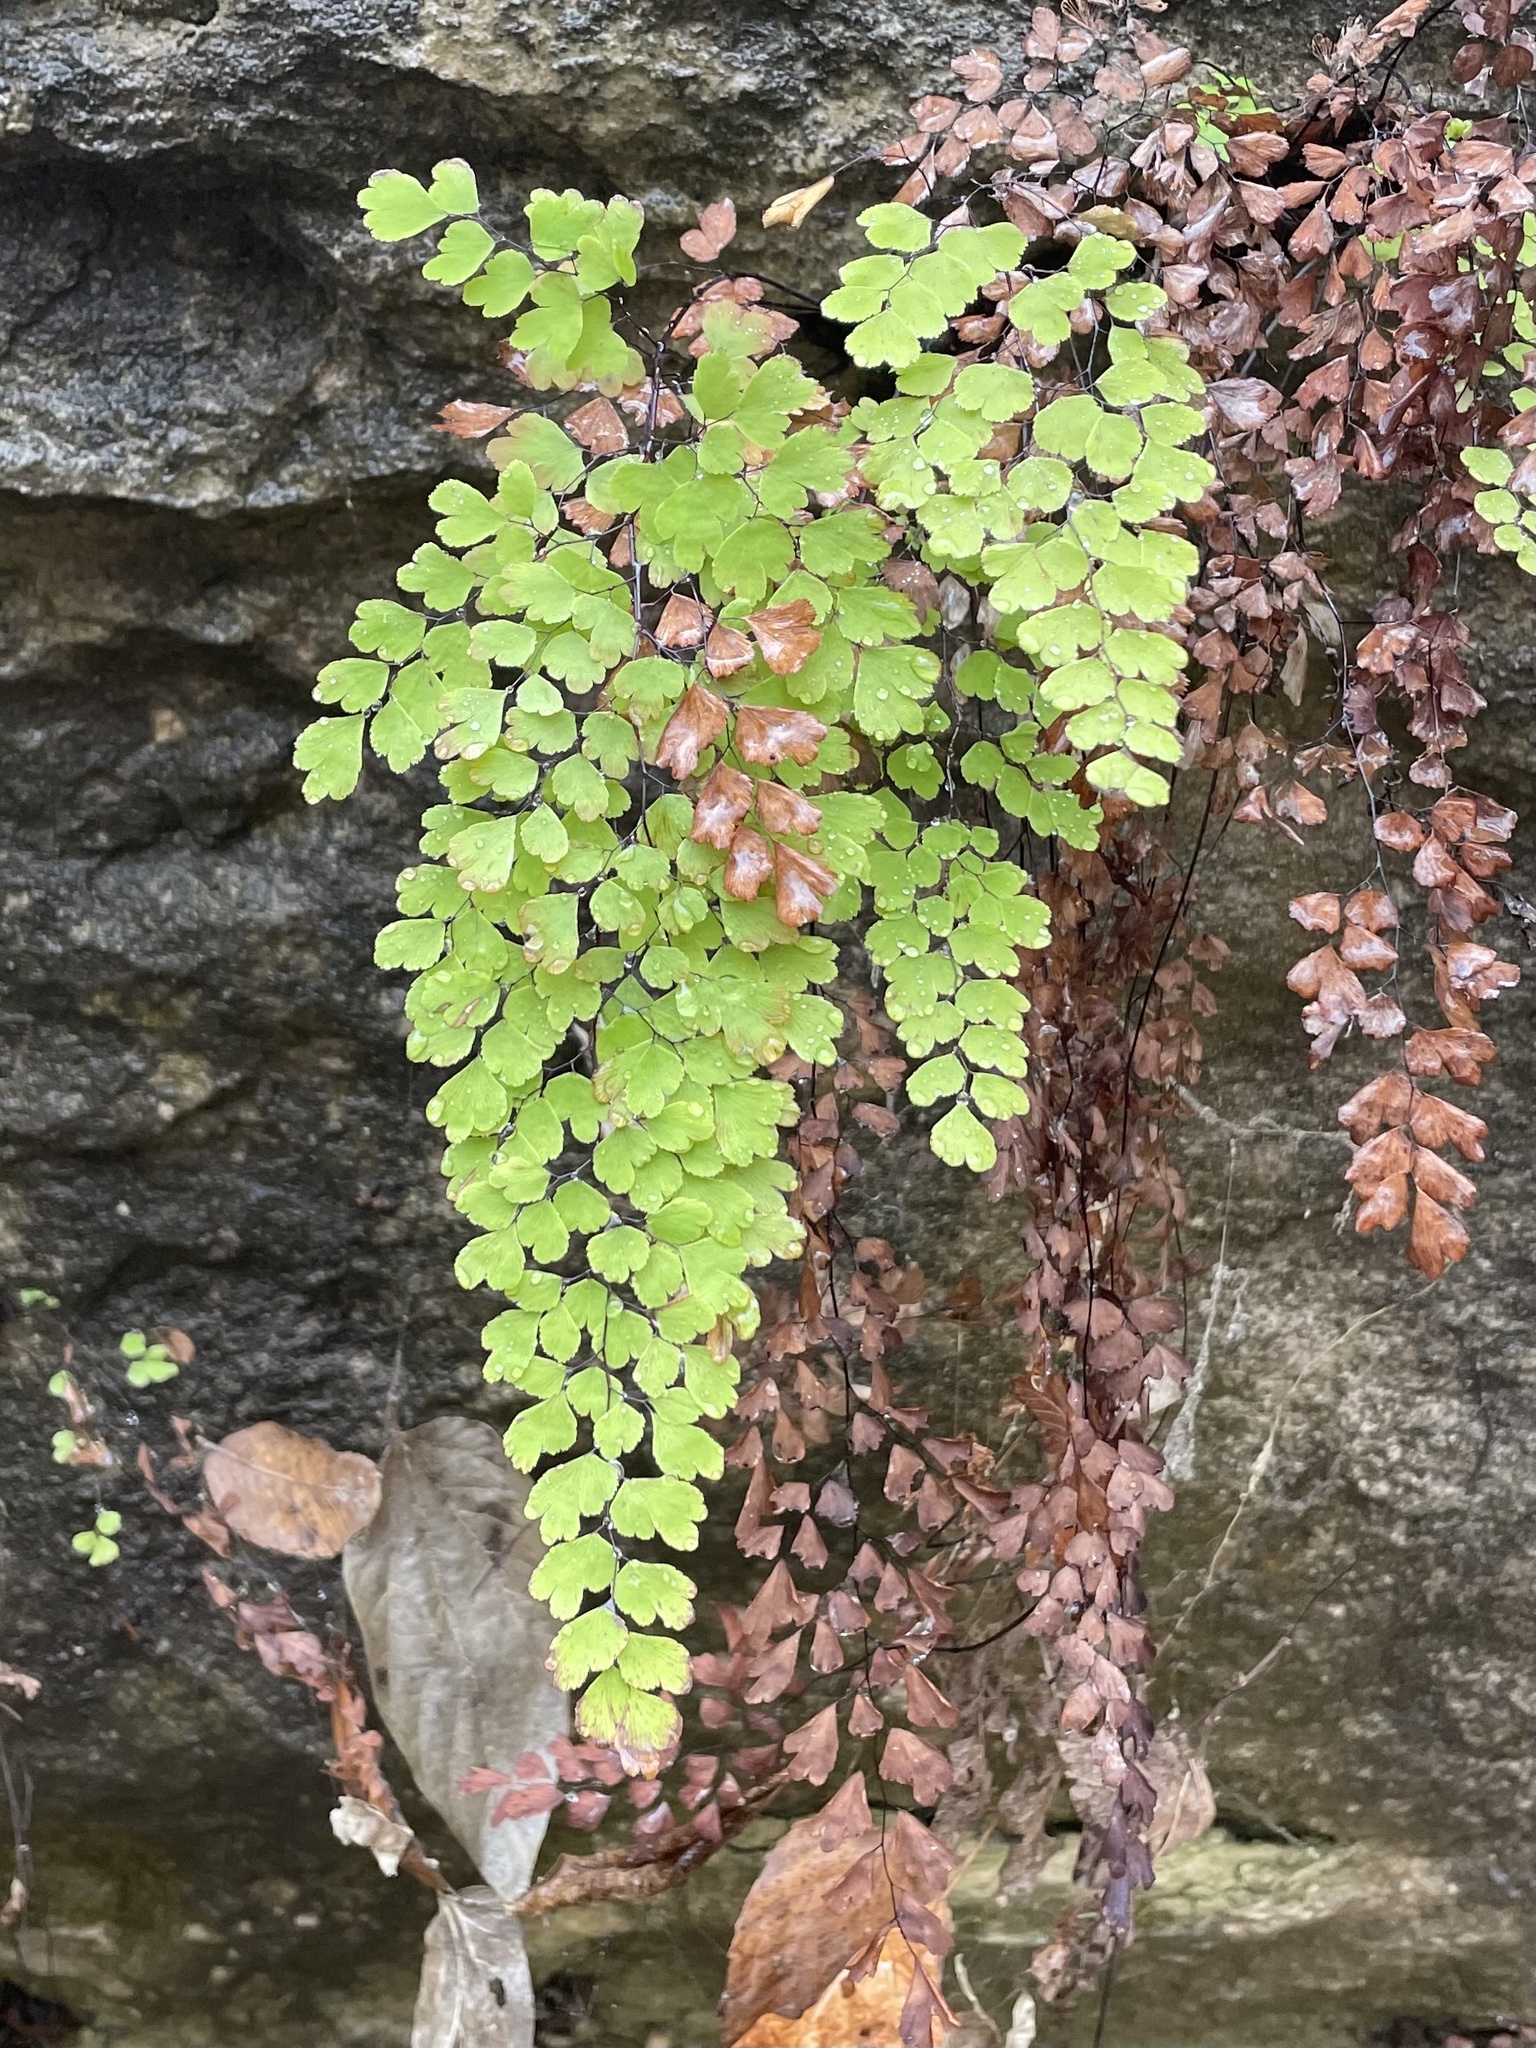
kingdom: Plantae
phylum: Tracheophyta
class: Polypodiopsida
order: Polypodiales
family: Pteridaceae
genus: Adiantum
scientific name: Adiantum capillus-veneris
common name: Maidenhair fern
